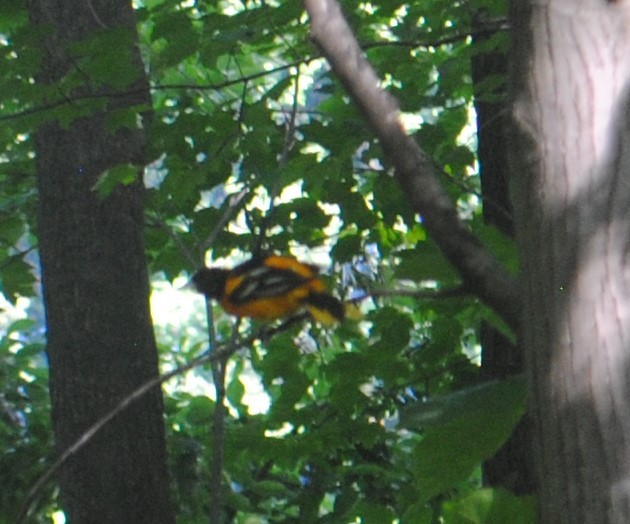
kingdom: Animalia
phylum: Chordata
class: Aves
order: Passeriformes
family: Icteridae
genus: Icterus
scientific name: Icterus galbula
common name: Baltimore oriole
